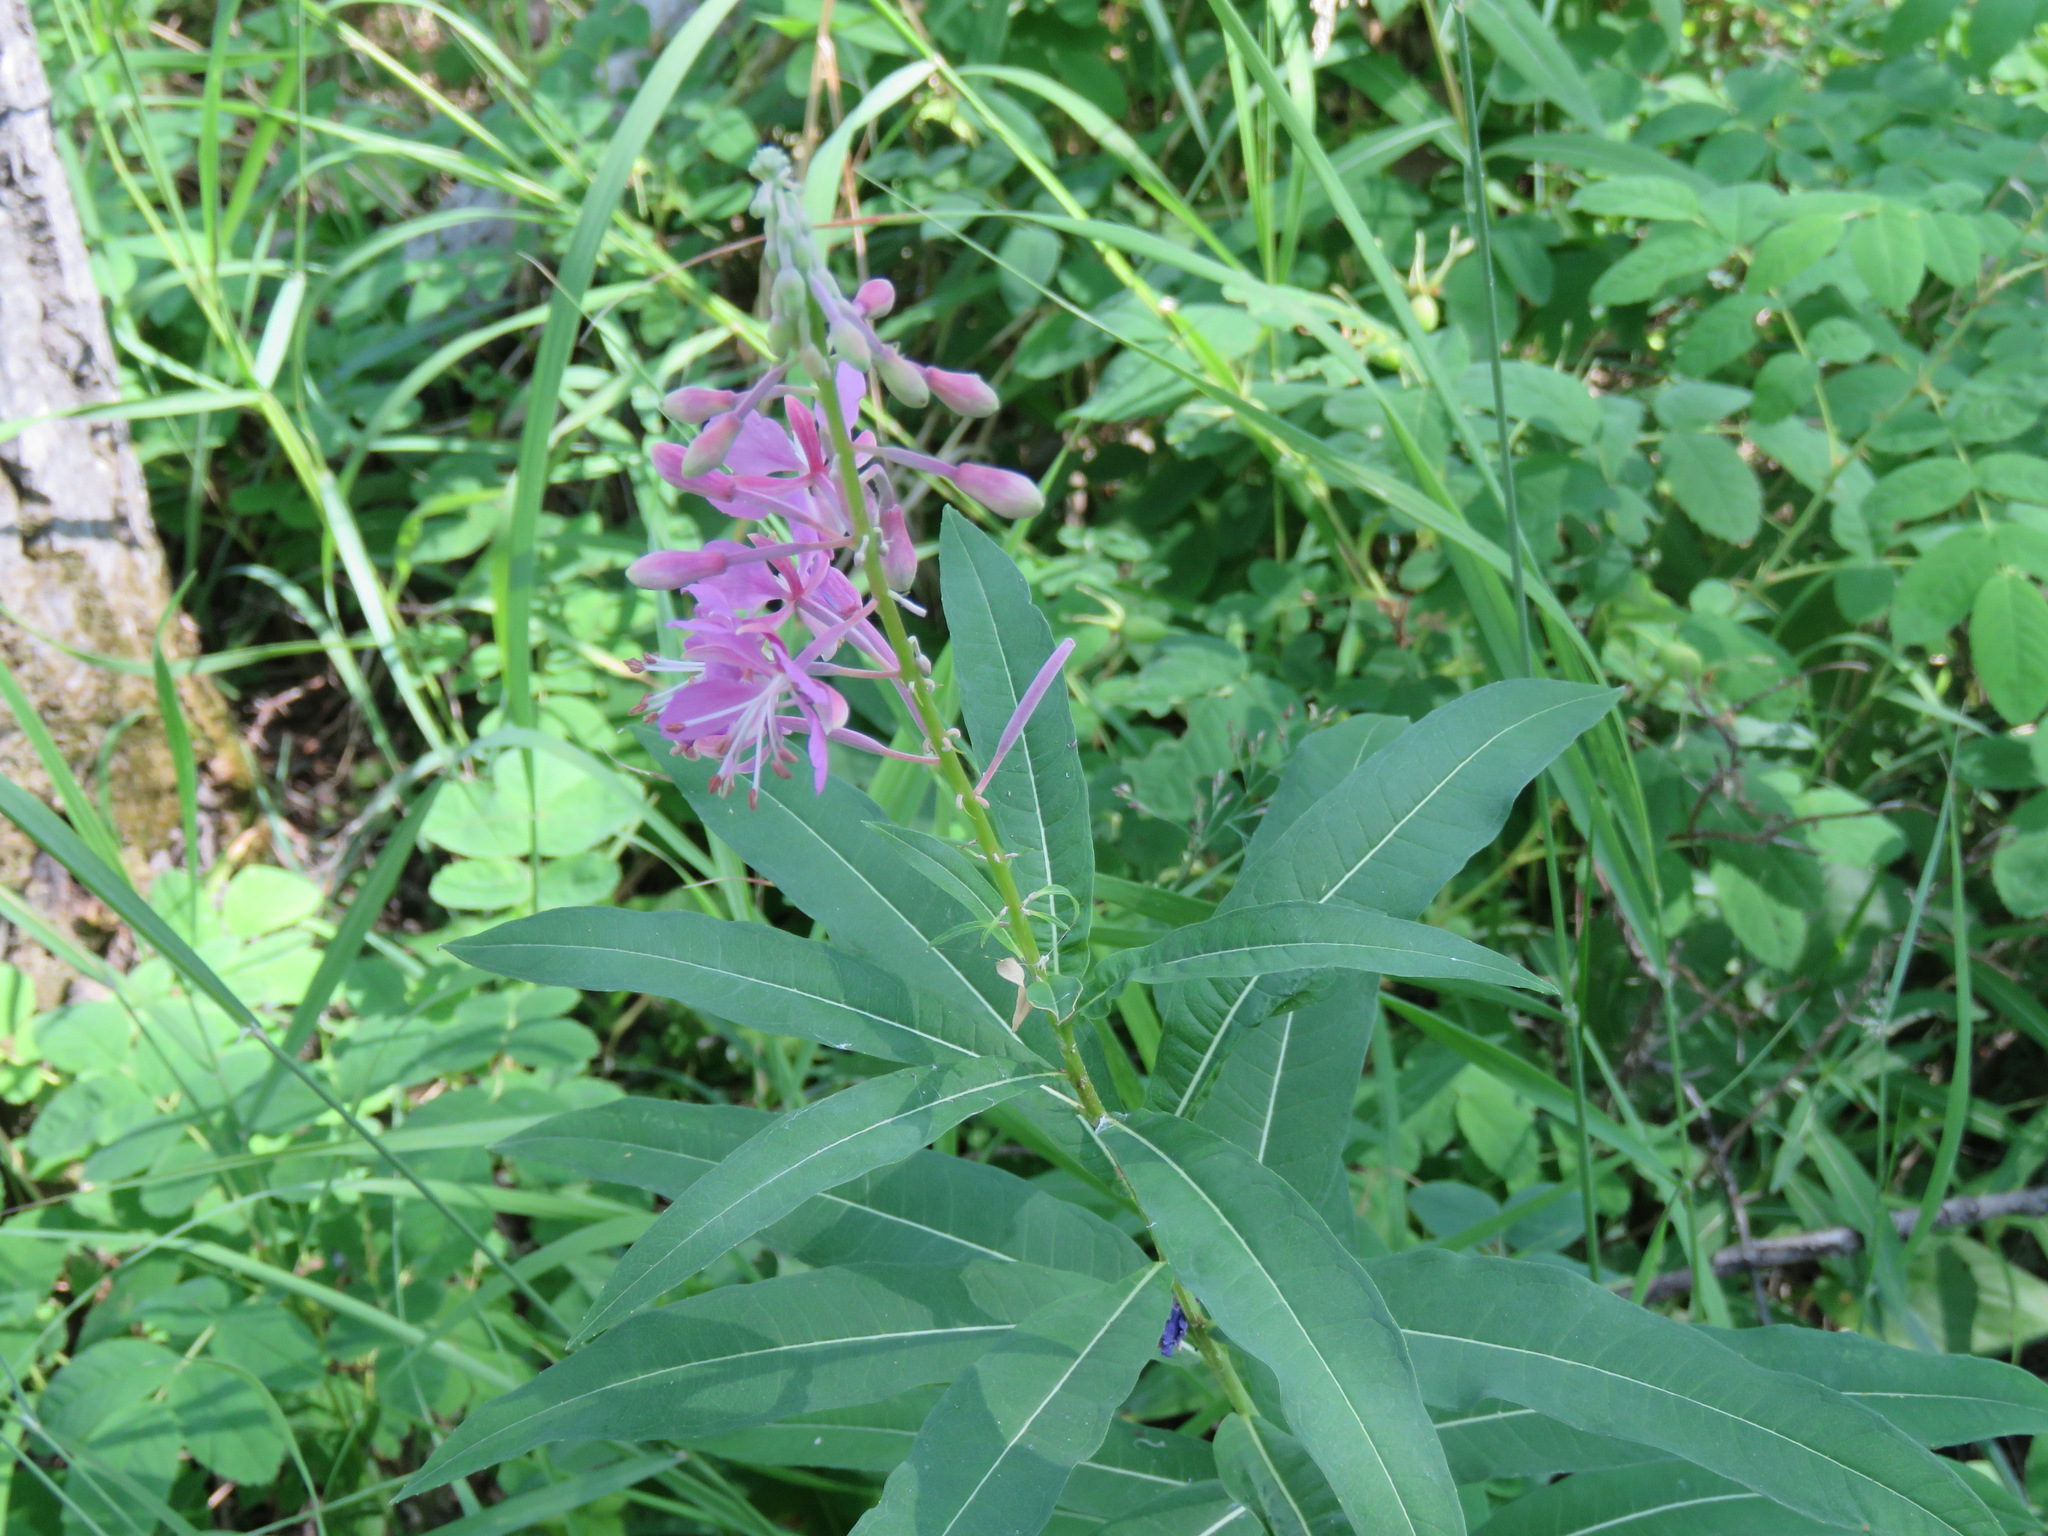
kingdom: Plantae
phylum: Tracheophyta
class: Magnoliopsida
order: Myrtales
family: Onagraceae
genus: Chamaenerion
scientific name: Chamaenerion angustifolium
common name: Fireweed
